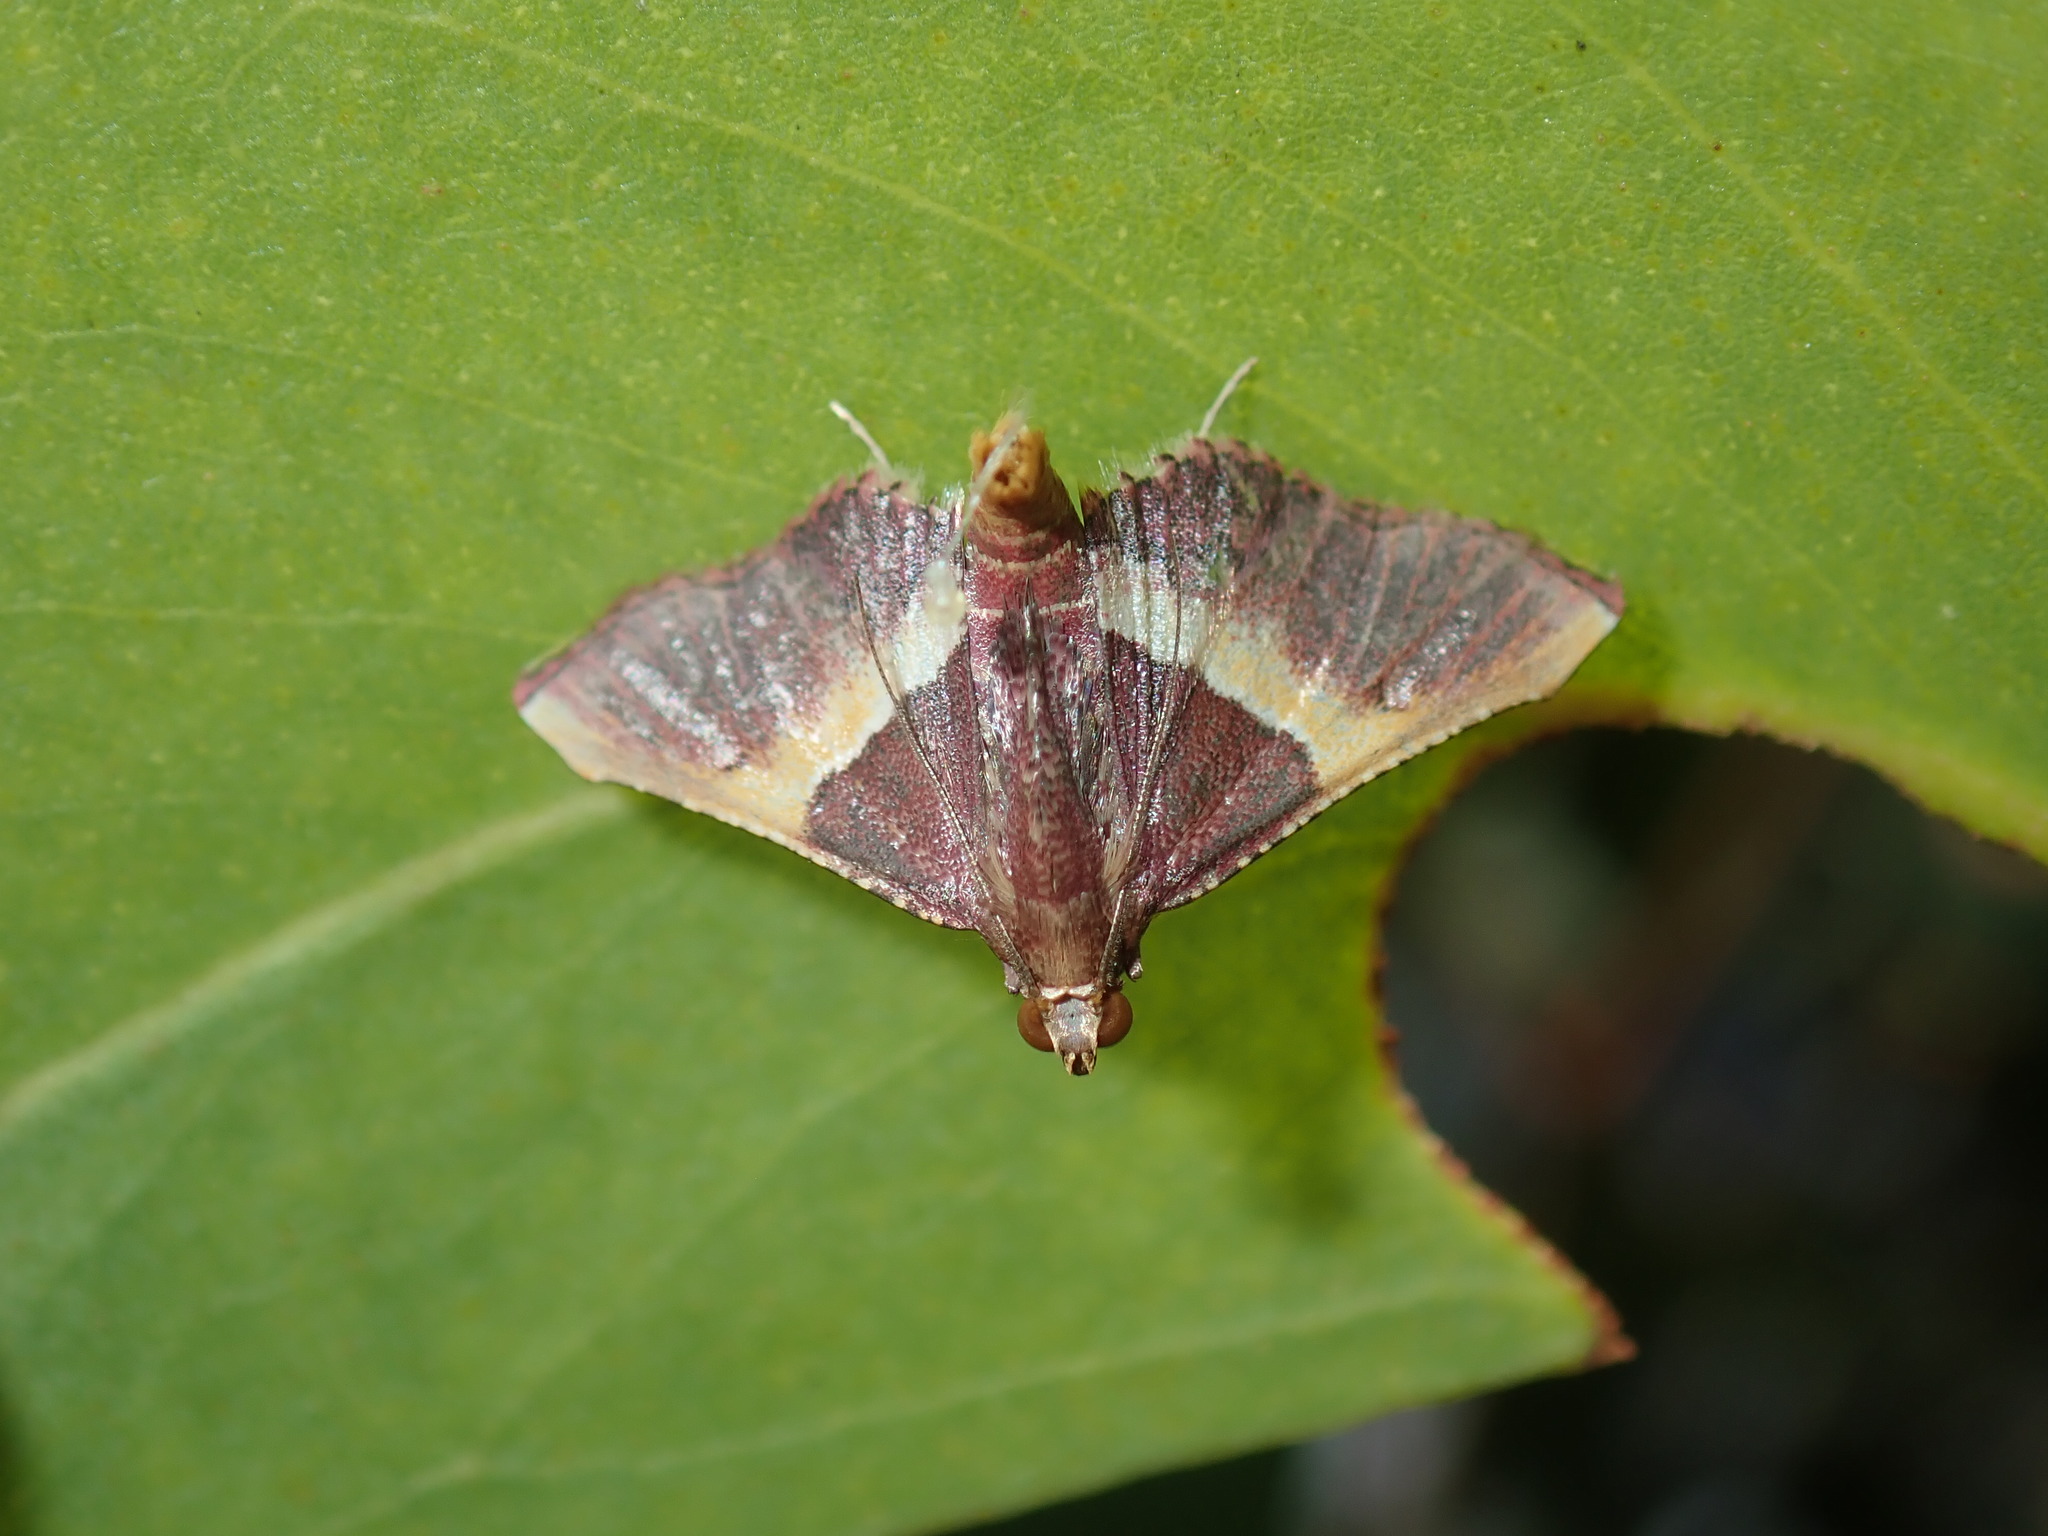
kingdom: Animalia
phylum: Arthropoda
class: Insecta
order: Lepidoptera
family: Pyralidae
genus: Endotricha
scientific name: Endotricha mesenterialis
